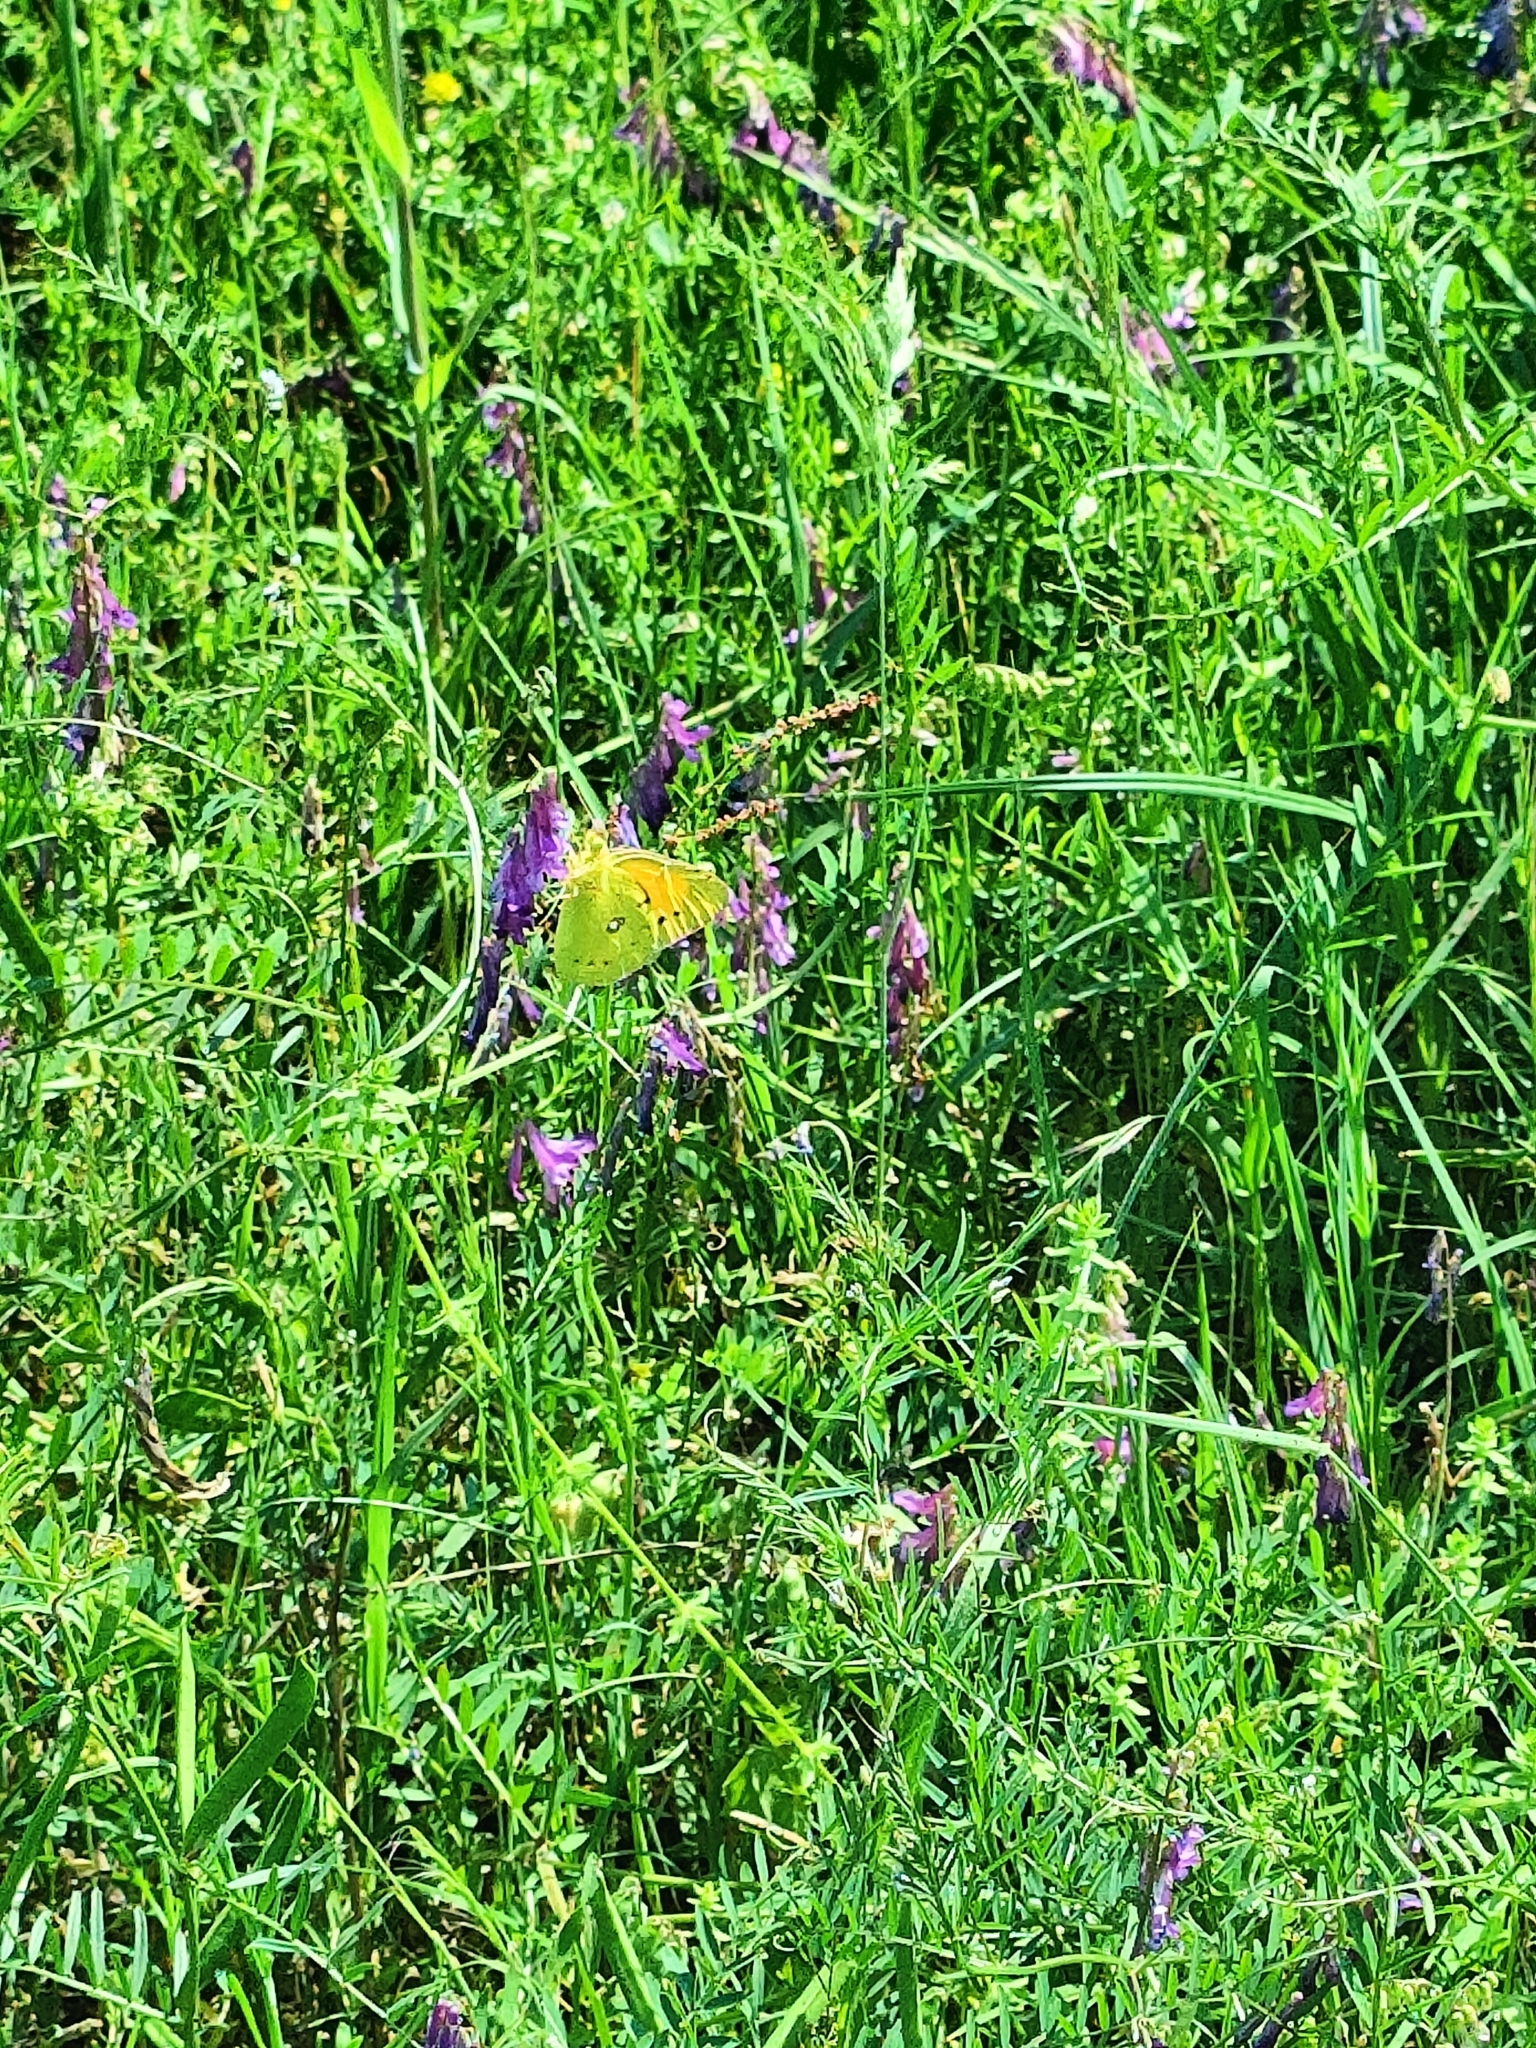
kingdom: Animalia
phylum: Arthropoda
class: Insecta
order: Lepidoptera
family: Pieridae
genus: Colias
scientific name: Colias croceus
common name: Clouded yellow
